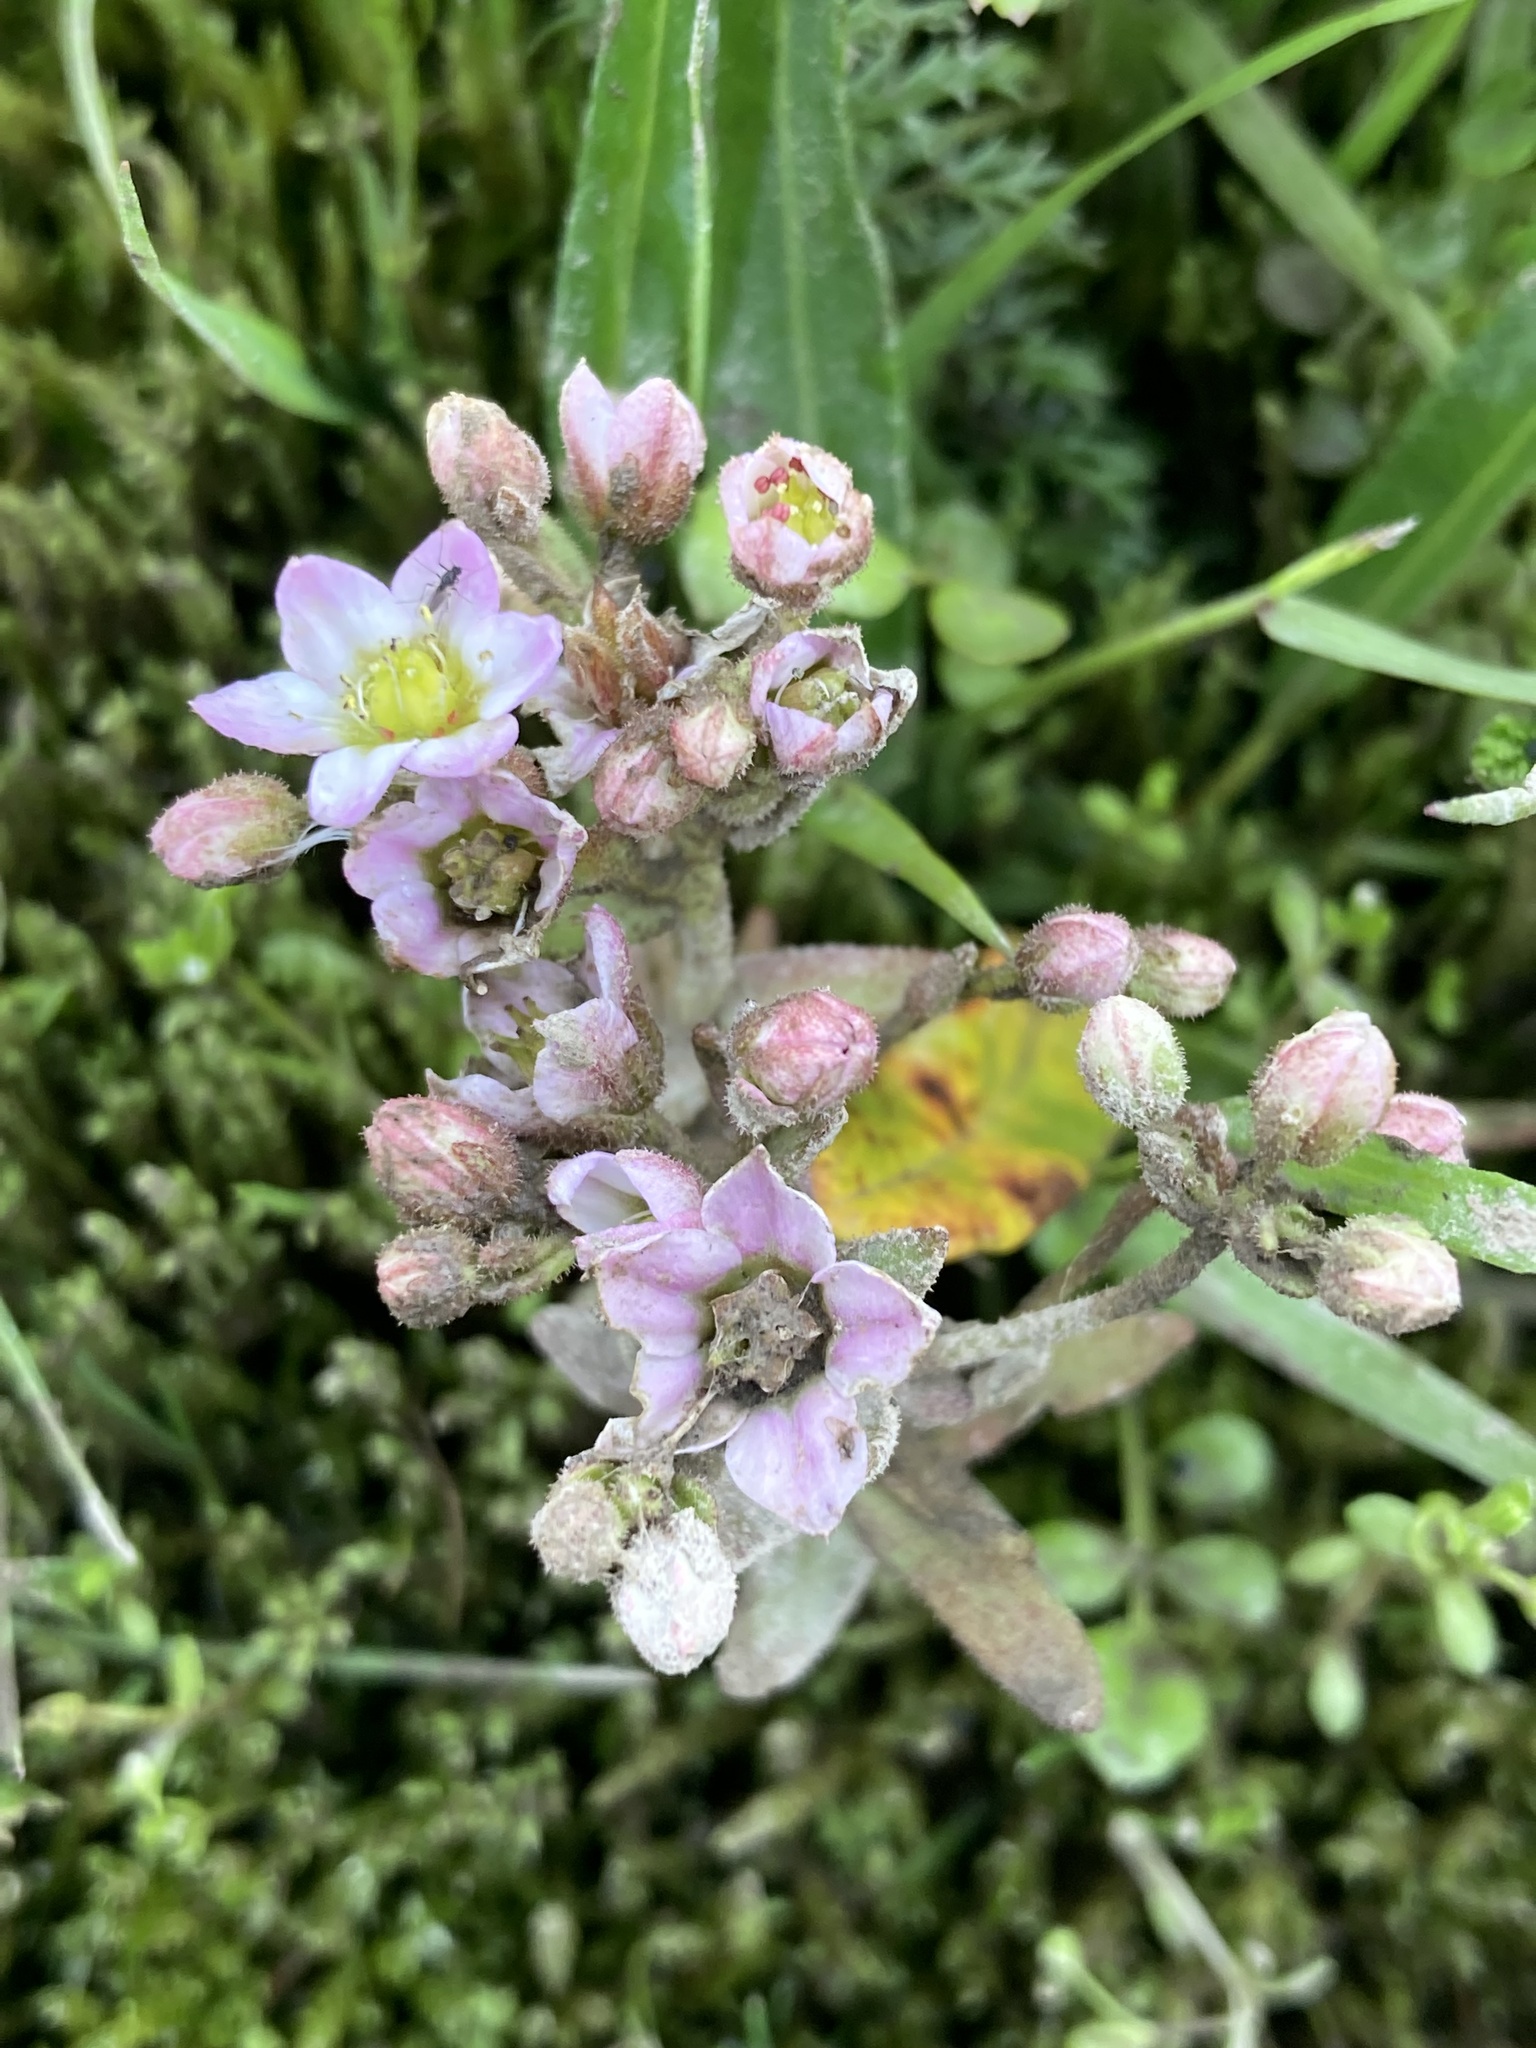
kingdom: Plantae
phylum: Tracheophyta
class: Magnoliopsida
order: Saxifragales
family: Crassulaceae
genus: Sedum
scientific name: Sedum villosum
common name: Hairy stonecrop
